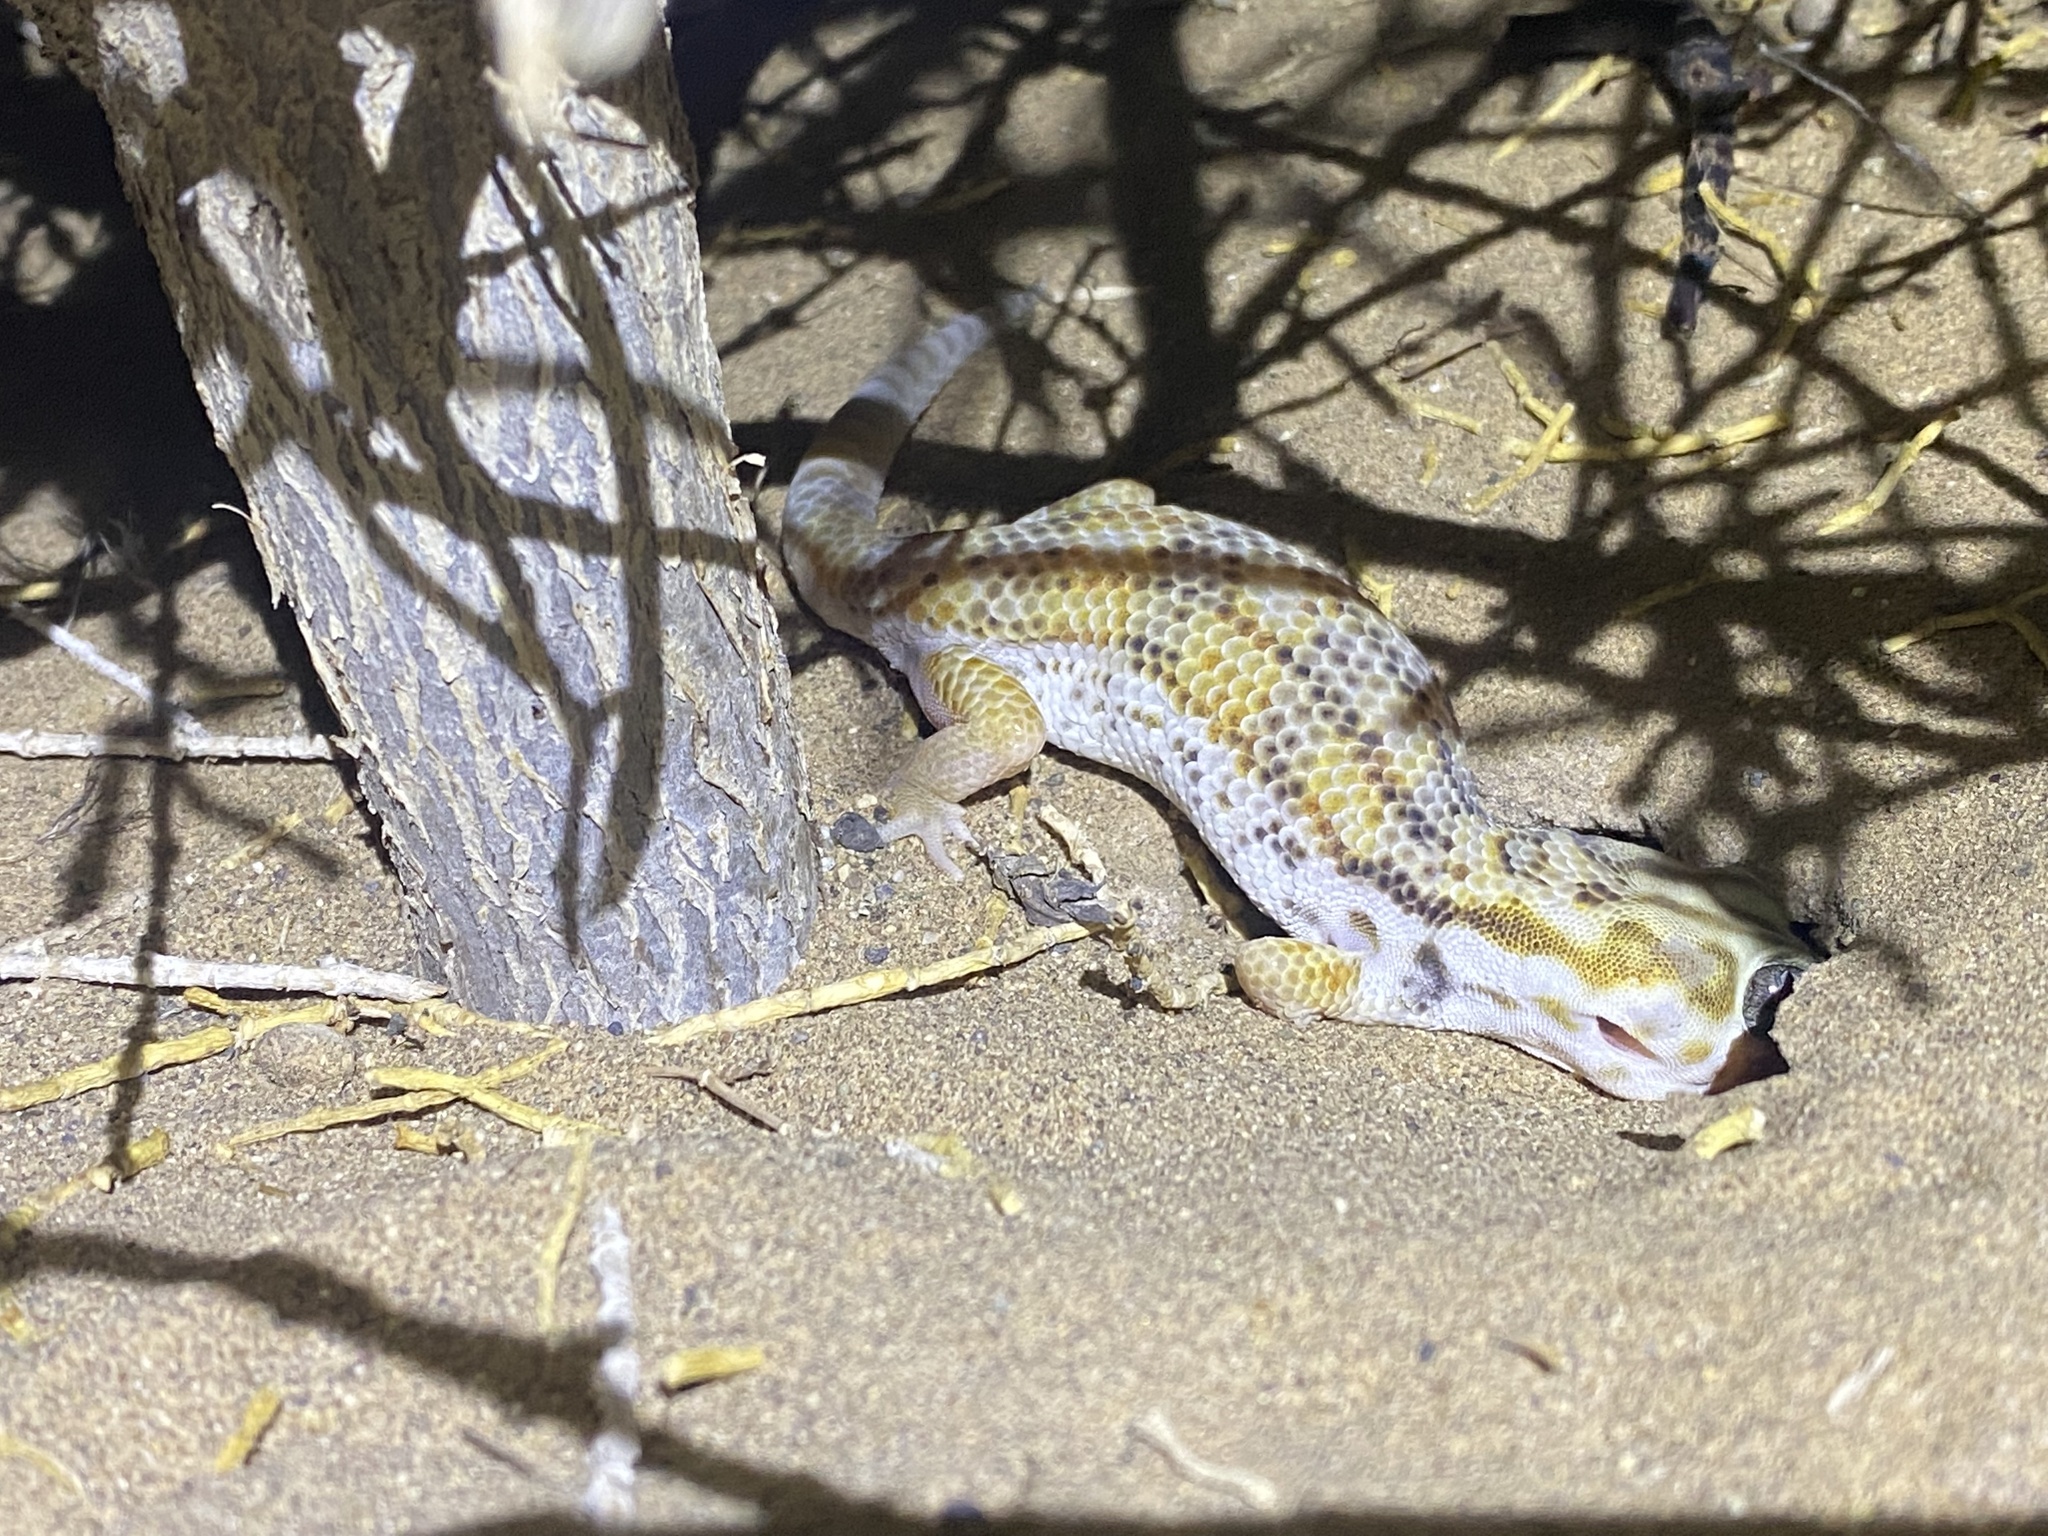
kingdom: Animalia
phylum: Chordata
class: Squamata
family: Sphaerodactylidae
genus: Teratoscincus
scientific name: Teratoscincus keyserlingii
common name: Frog-eyed gecko
